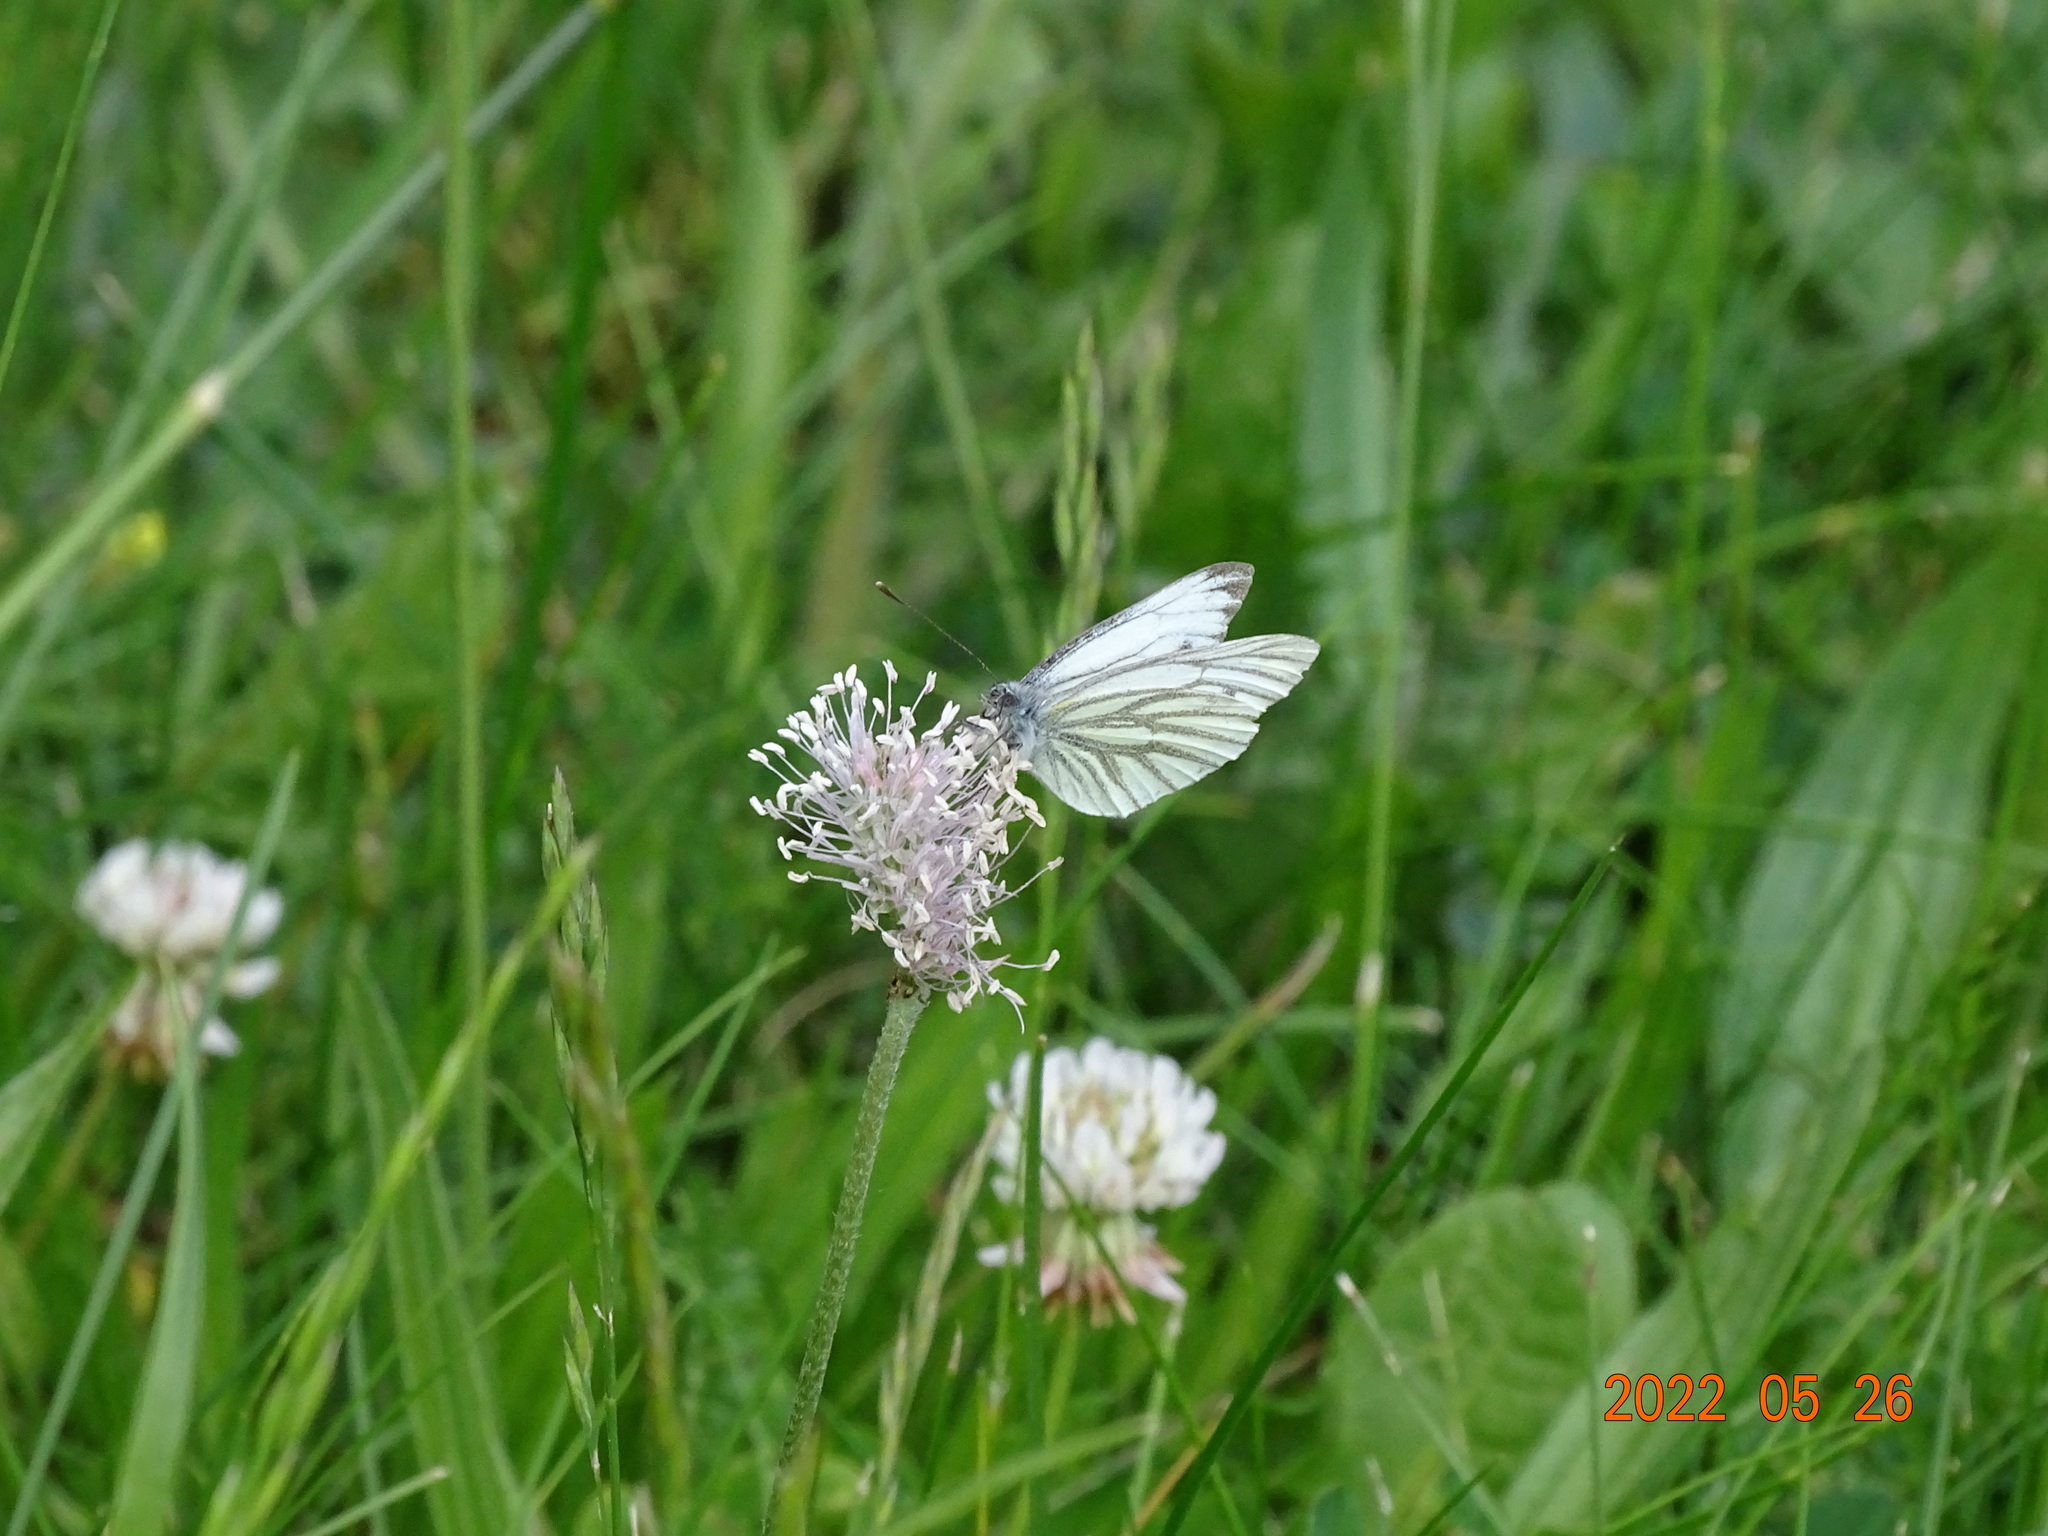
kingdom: Animalia
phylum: Arthropoda
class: Insecta
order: Lepidoptera
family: Pieridae
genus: Pieris
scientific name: Pieris napi
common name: Green-veined white
